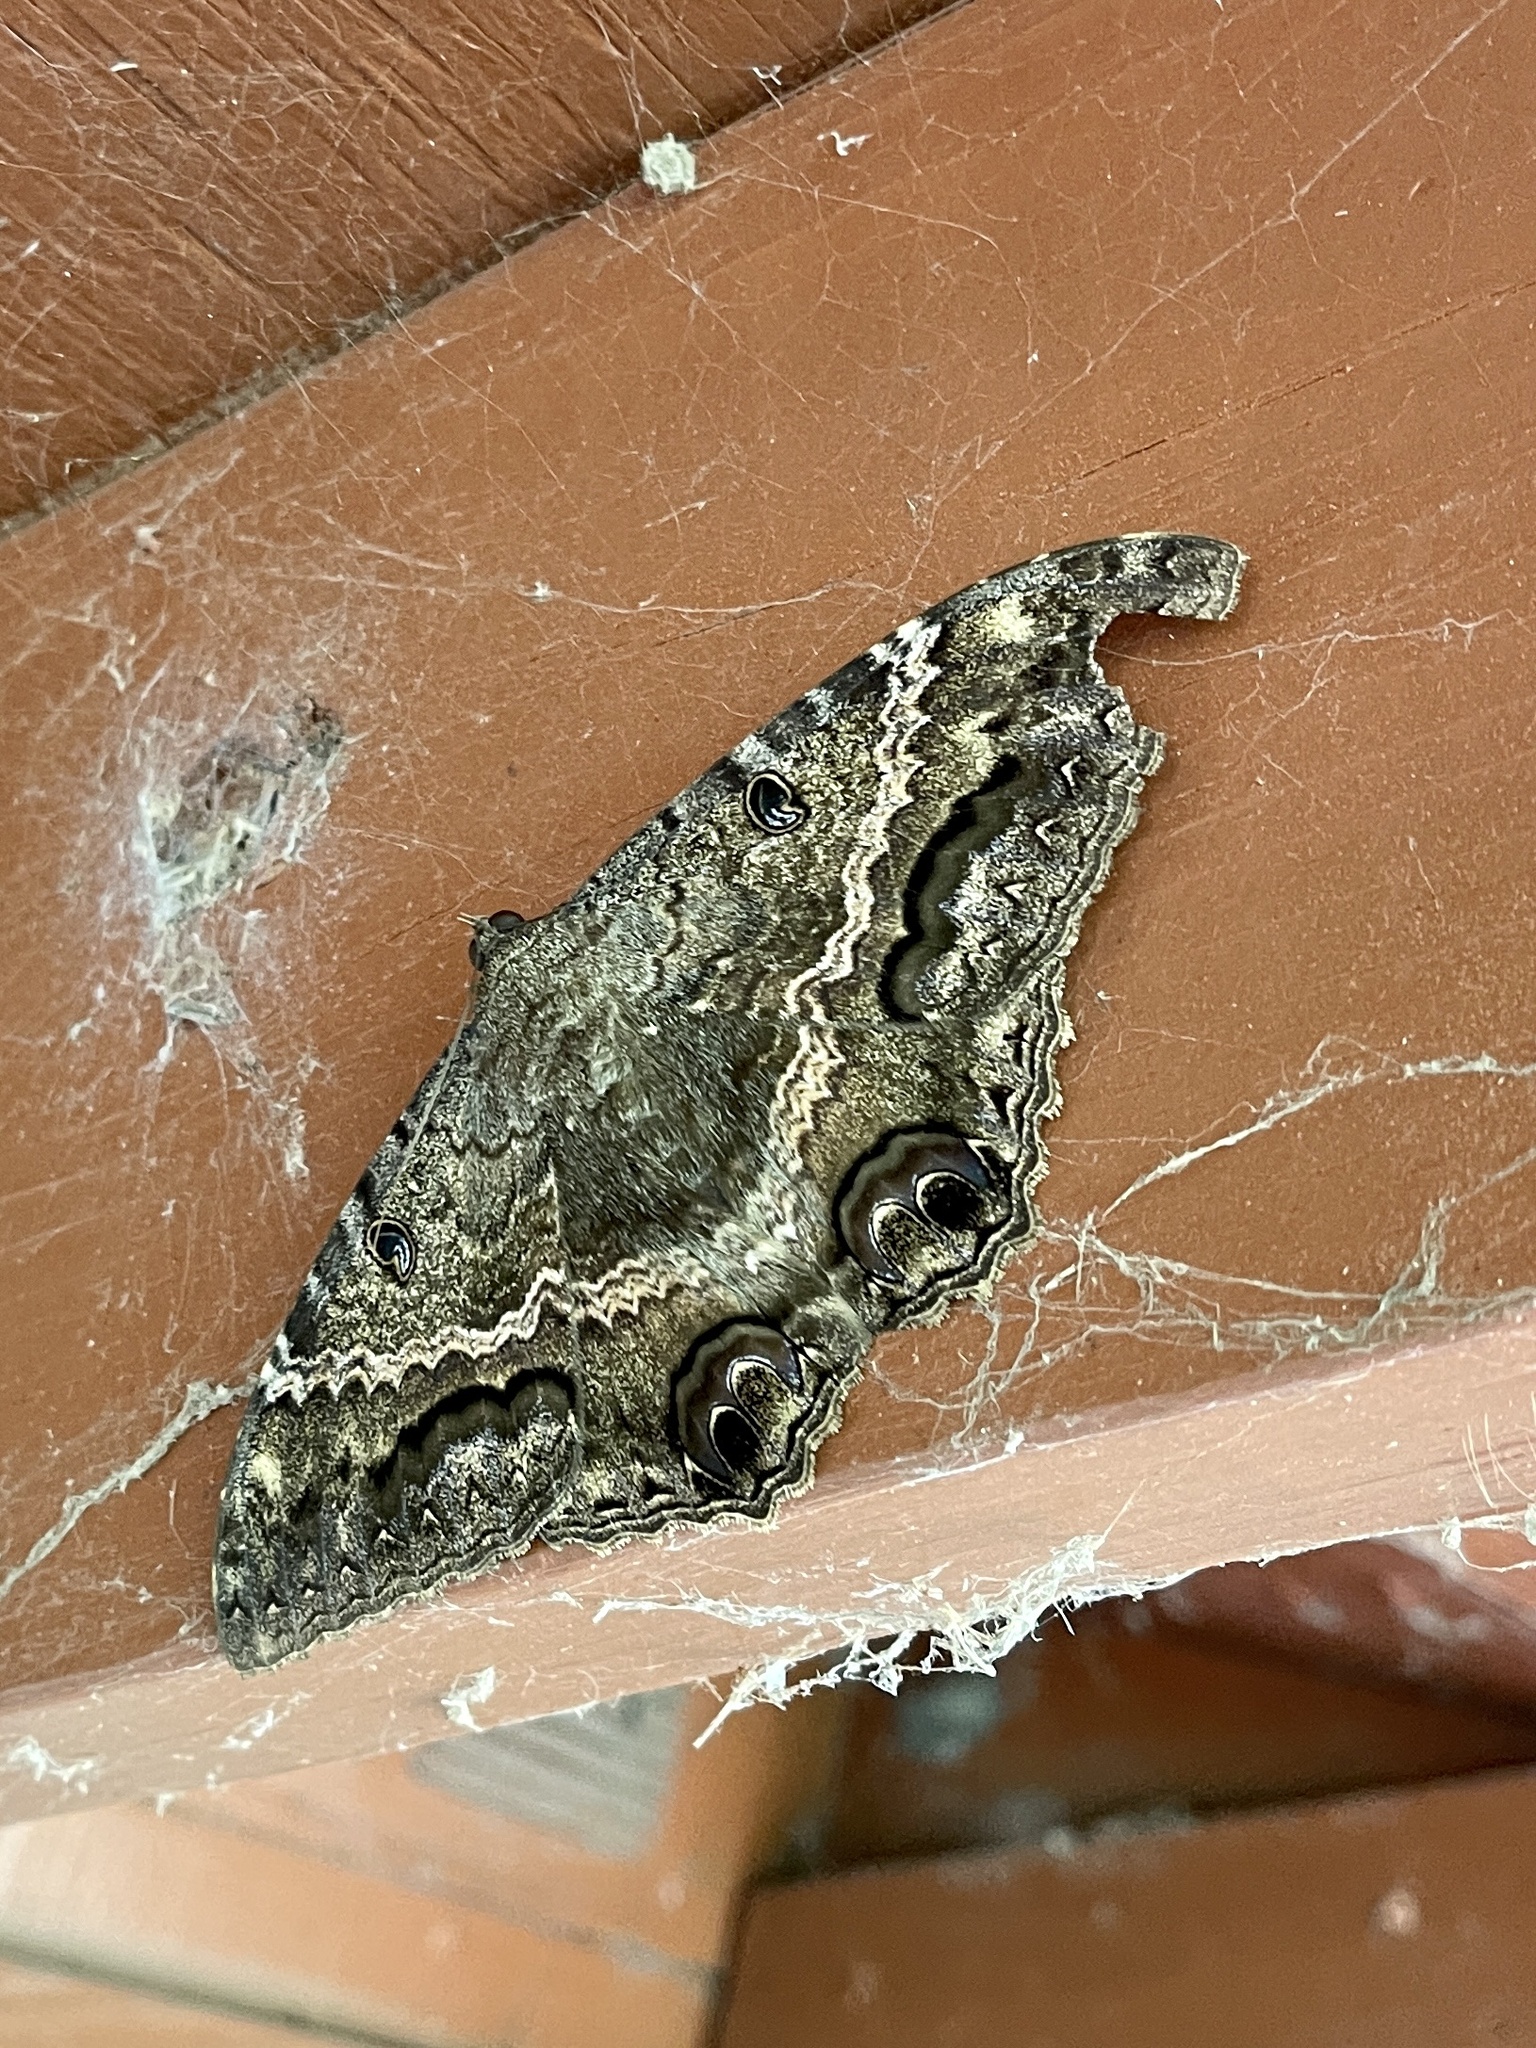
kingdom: Animalia
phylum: Arthropoda
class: Insecta
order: Lepidoptera
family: Erebidae
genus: Ascalapha
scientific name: Ascalapha odorata
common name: Black witch
